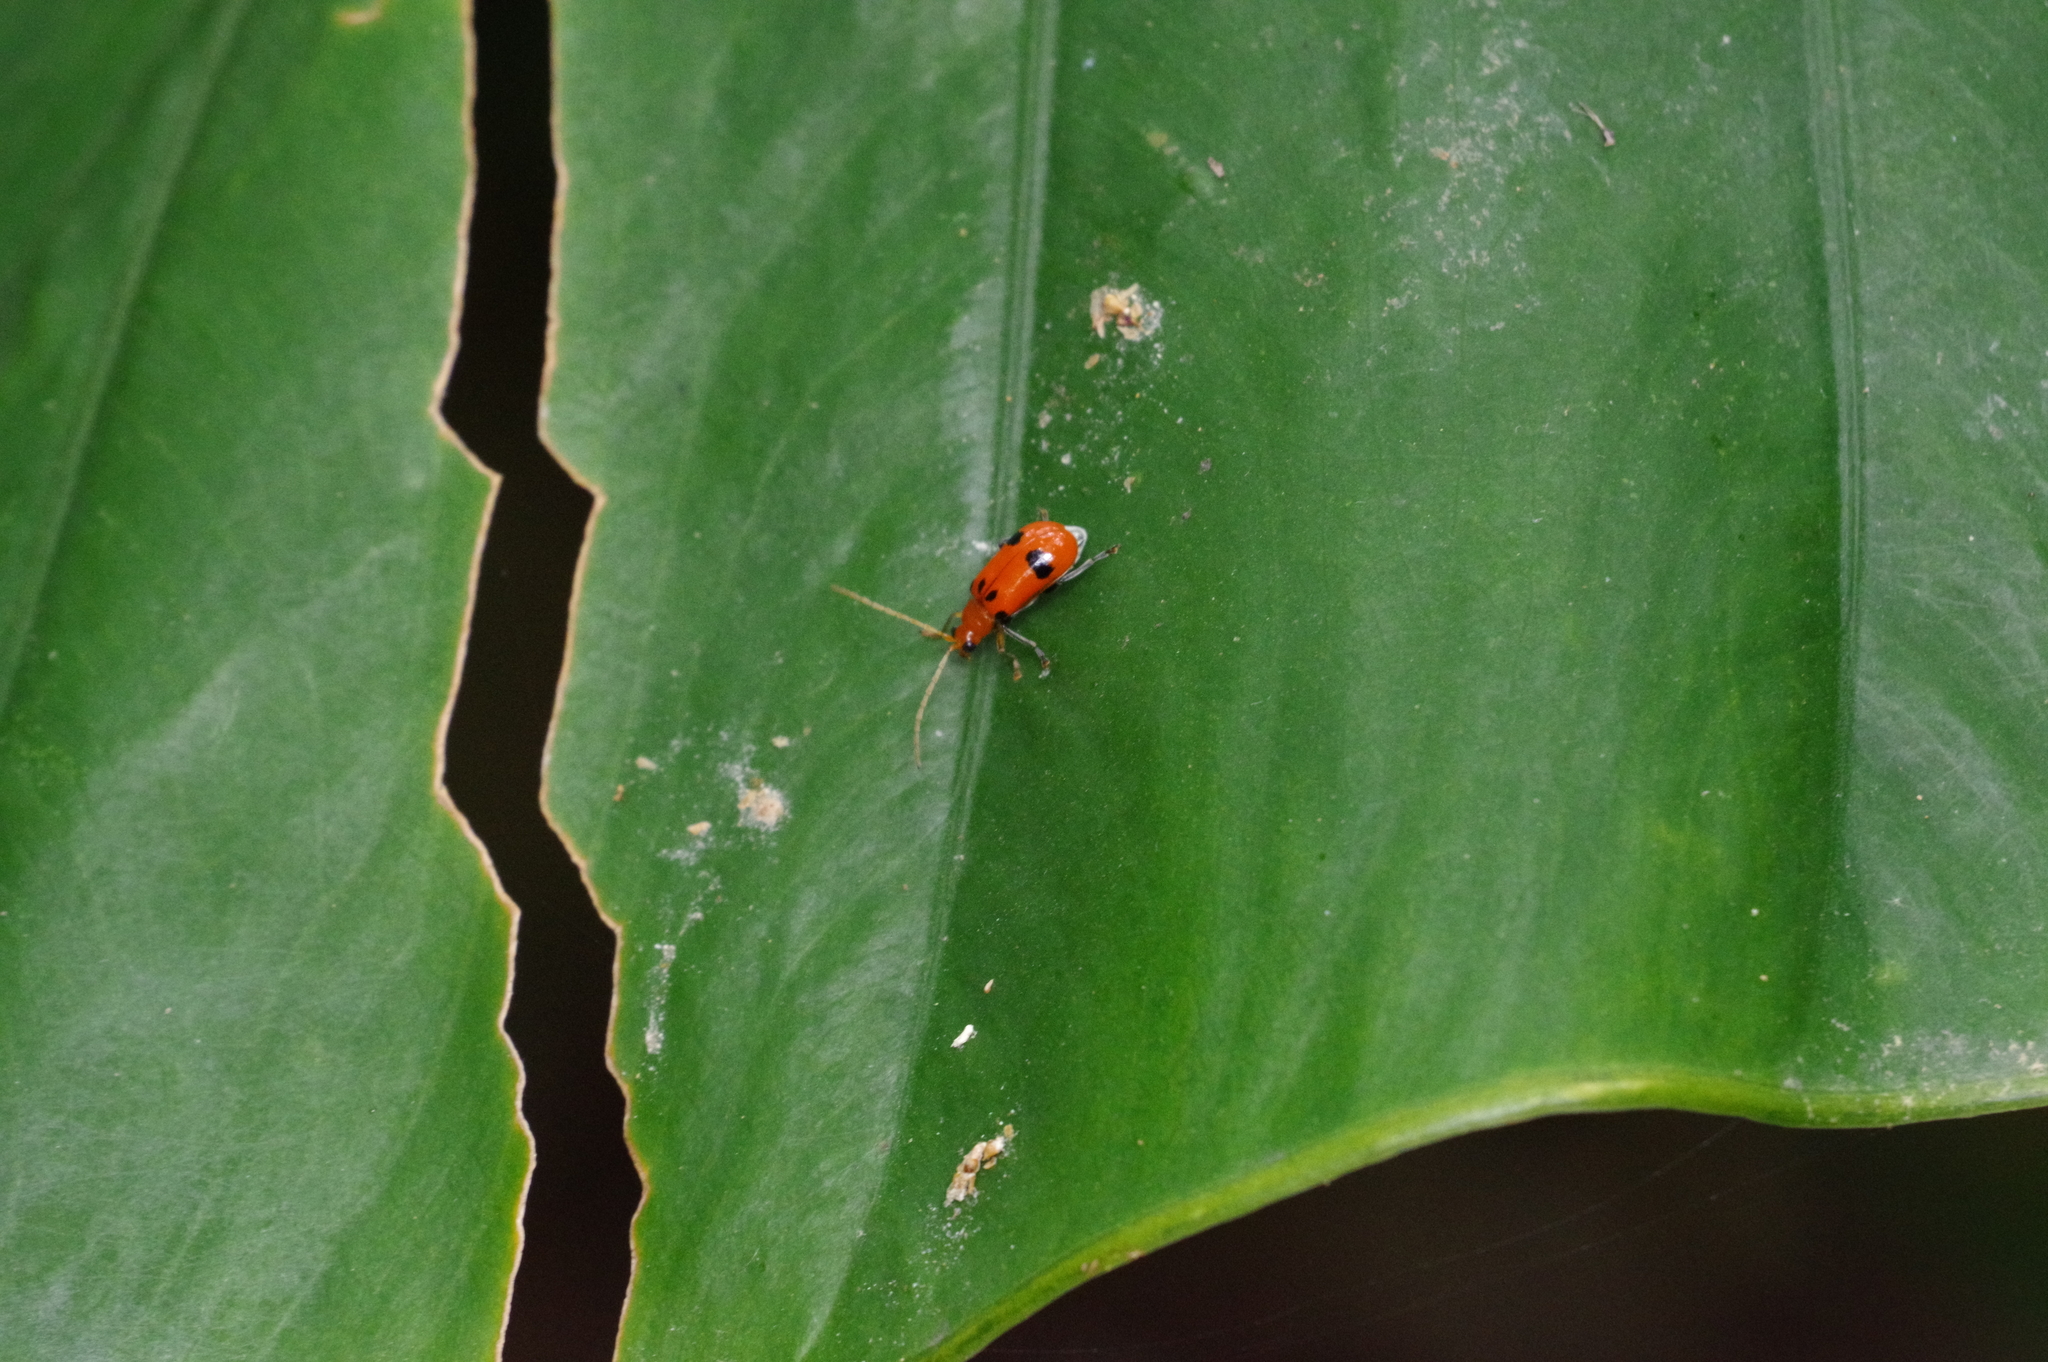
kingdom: Animalia
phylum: Arthropoda
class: Insecta
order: Coleoptera
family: Chrysomelidae
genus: Aulacophora
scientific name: Aulacophora bicolor
